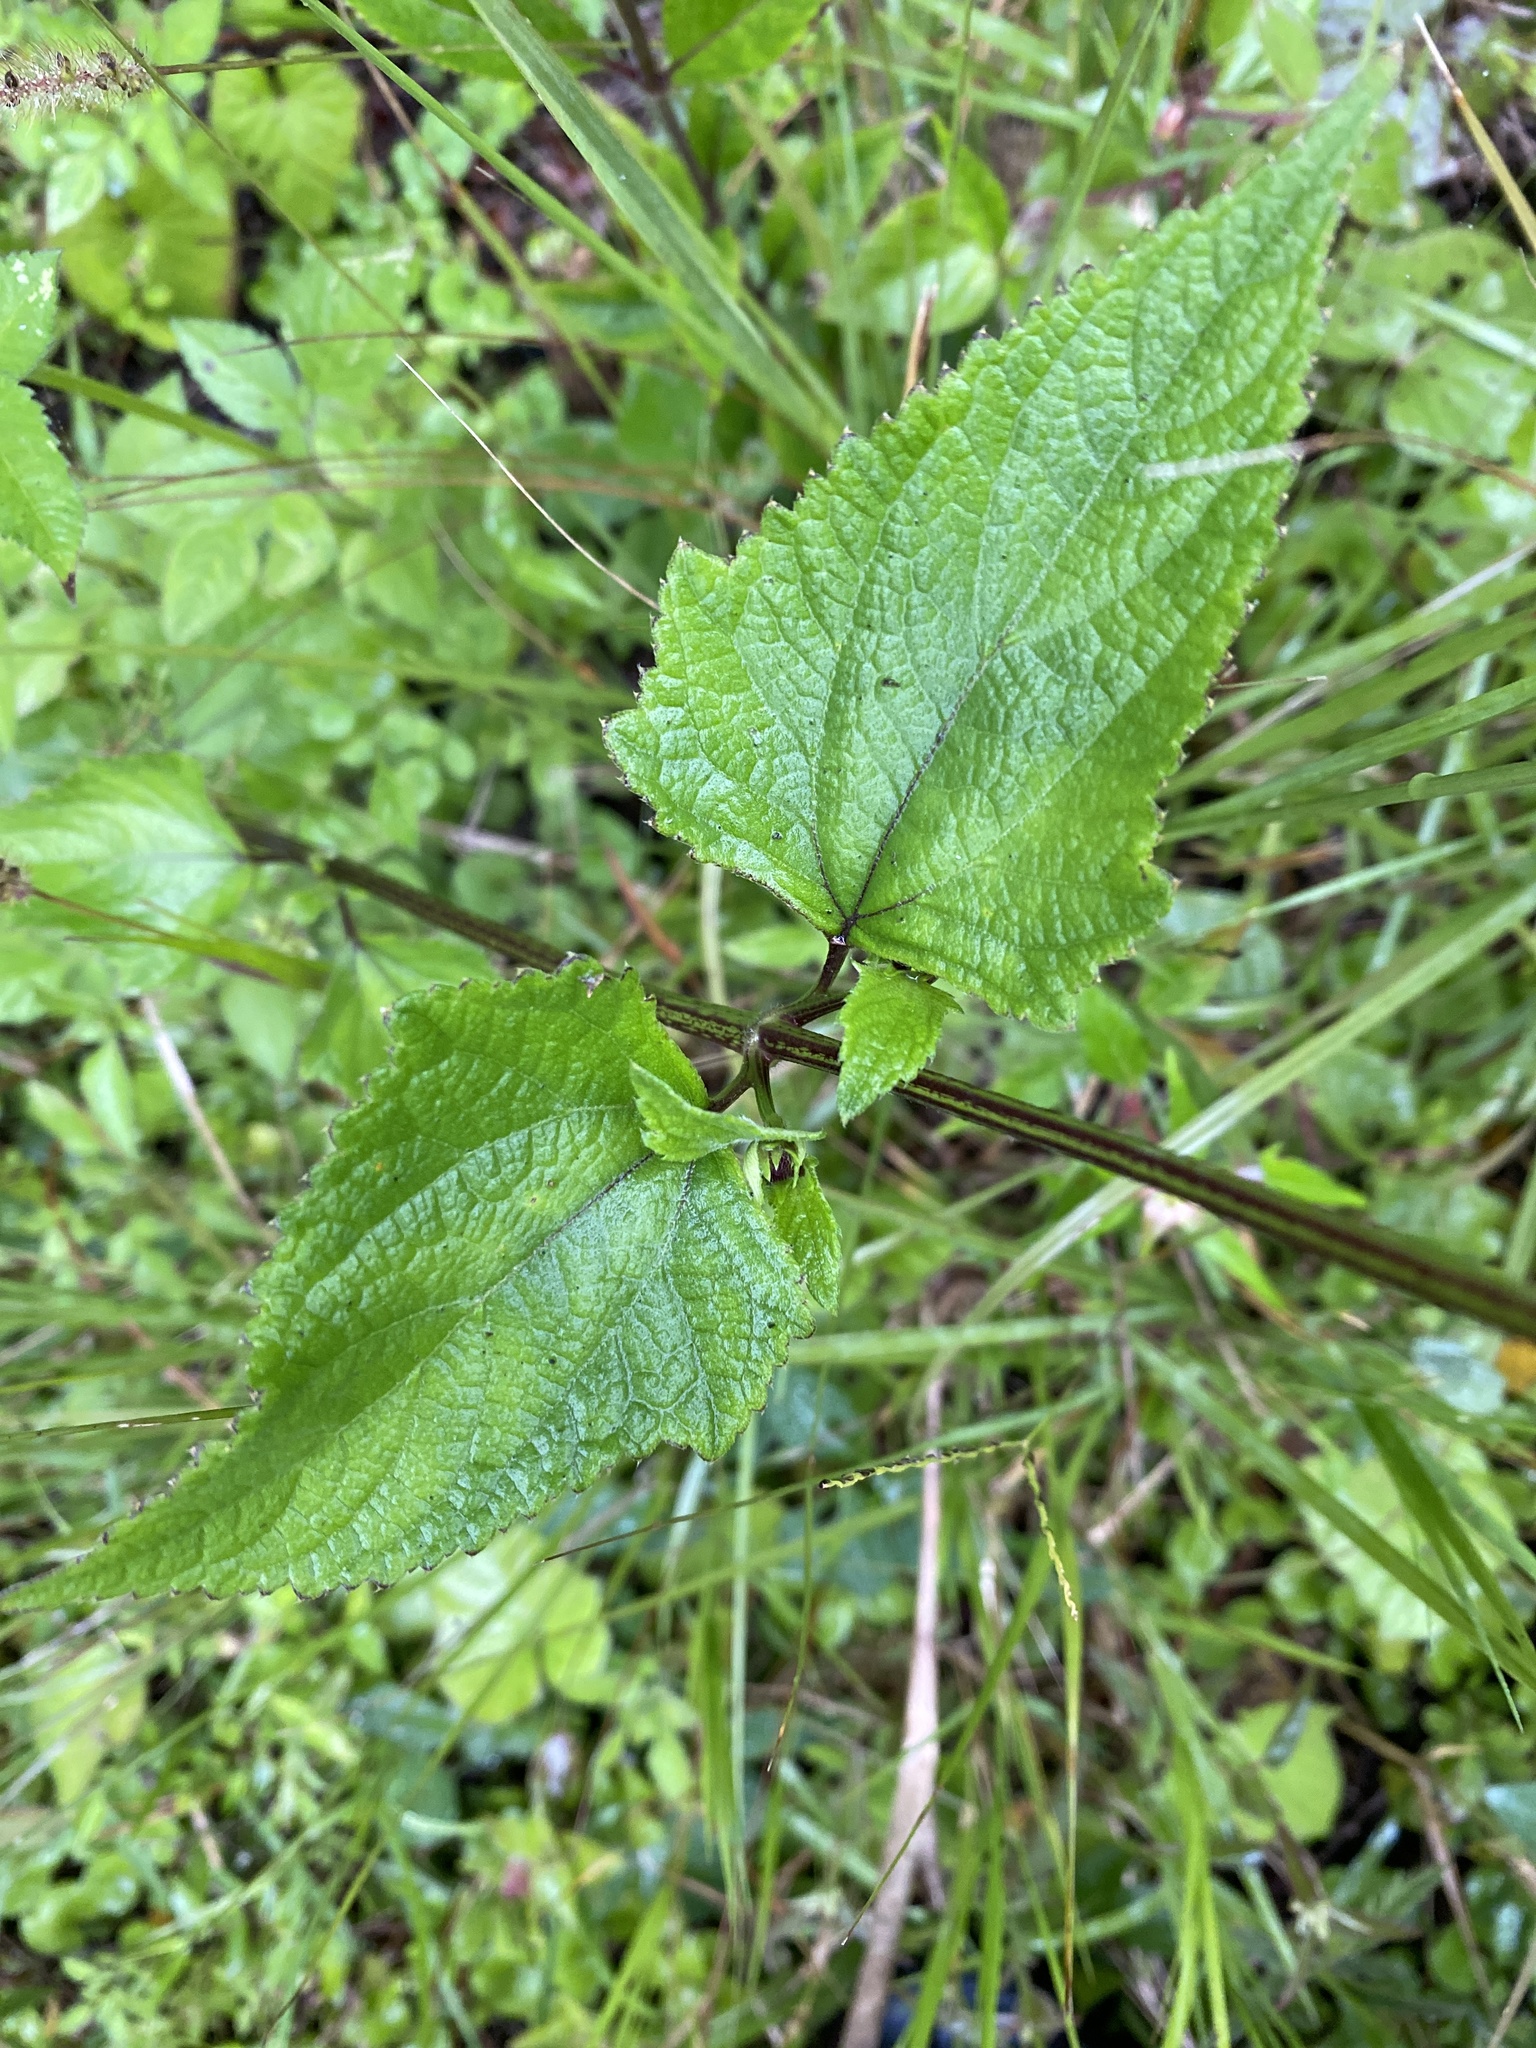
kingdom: Plantae
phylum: Tracheophyta
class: Magnoliopsida
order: Asterales
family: Asteraceae
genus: Melanthera
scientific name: Melanthera nivea
